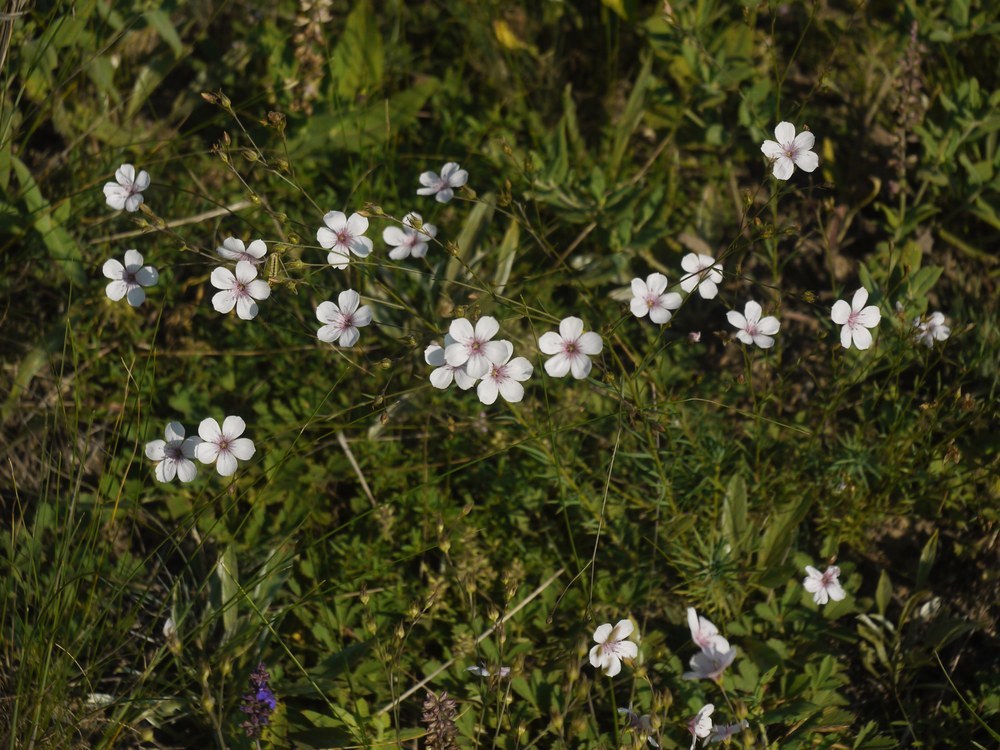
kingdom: Plantae
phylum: Tracheophyta
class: Magnoliopsida
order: Malpighiales
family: Linaceae
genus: Linum
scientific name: Linum tenuifolium
